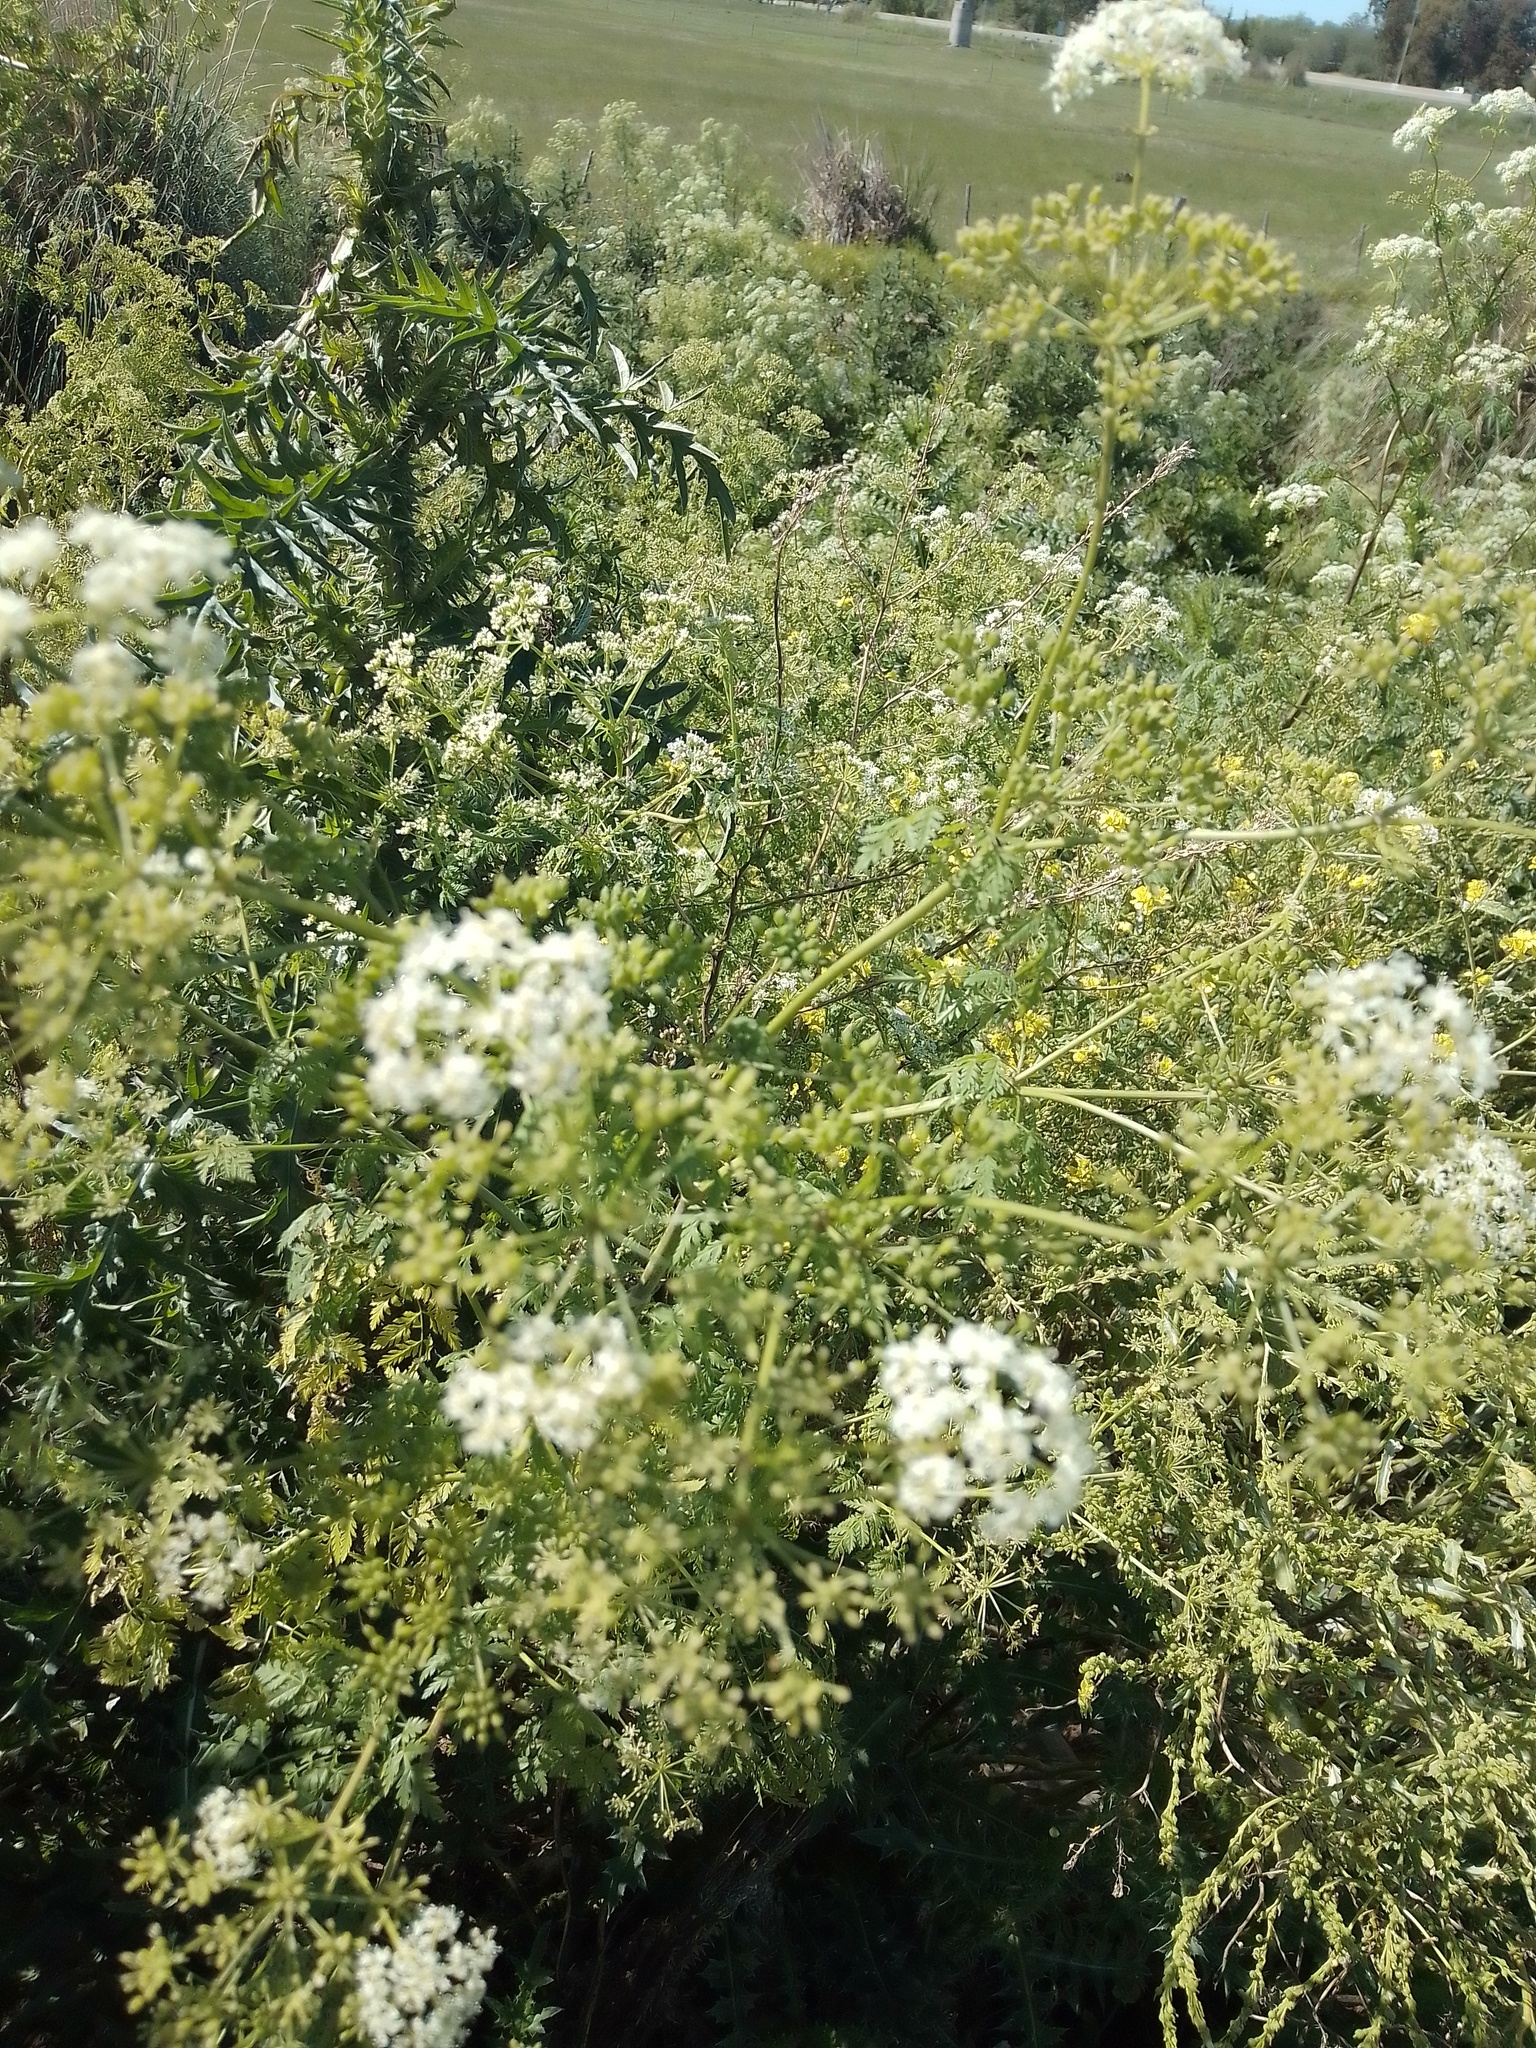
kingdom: Plantae
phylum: Tracheophyta
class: Magnoliopsida
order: Apiales
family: Apiaceae
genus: Conium
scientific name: Conium maculatum
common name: Hemlock
